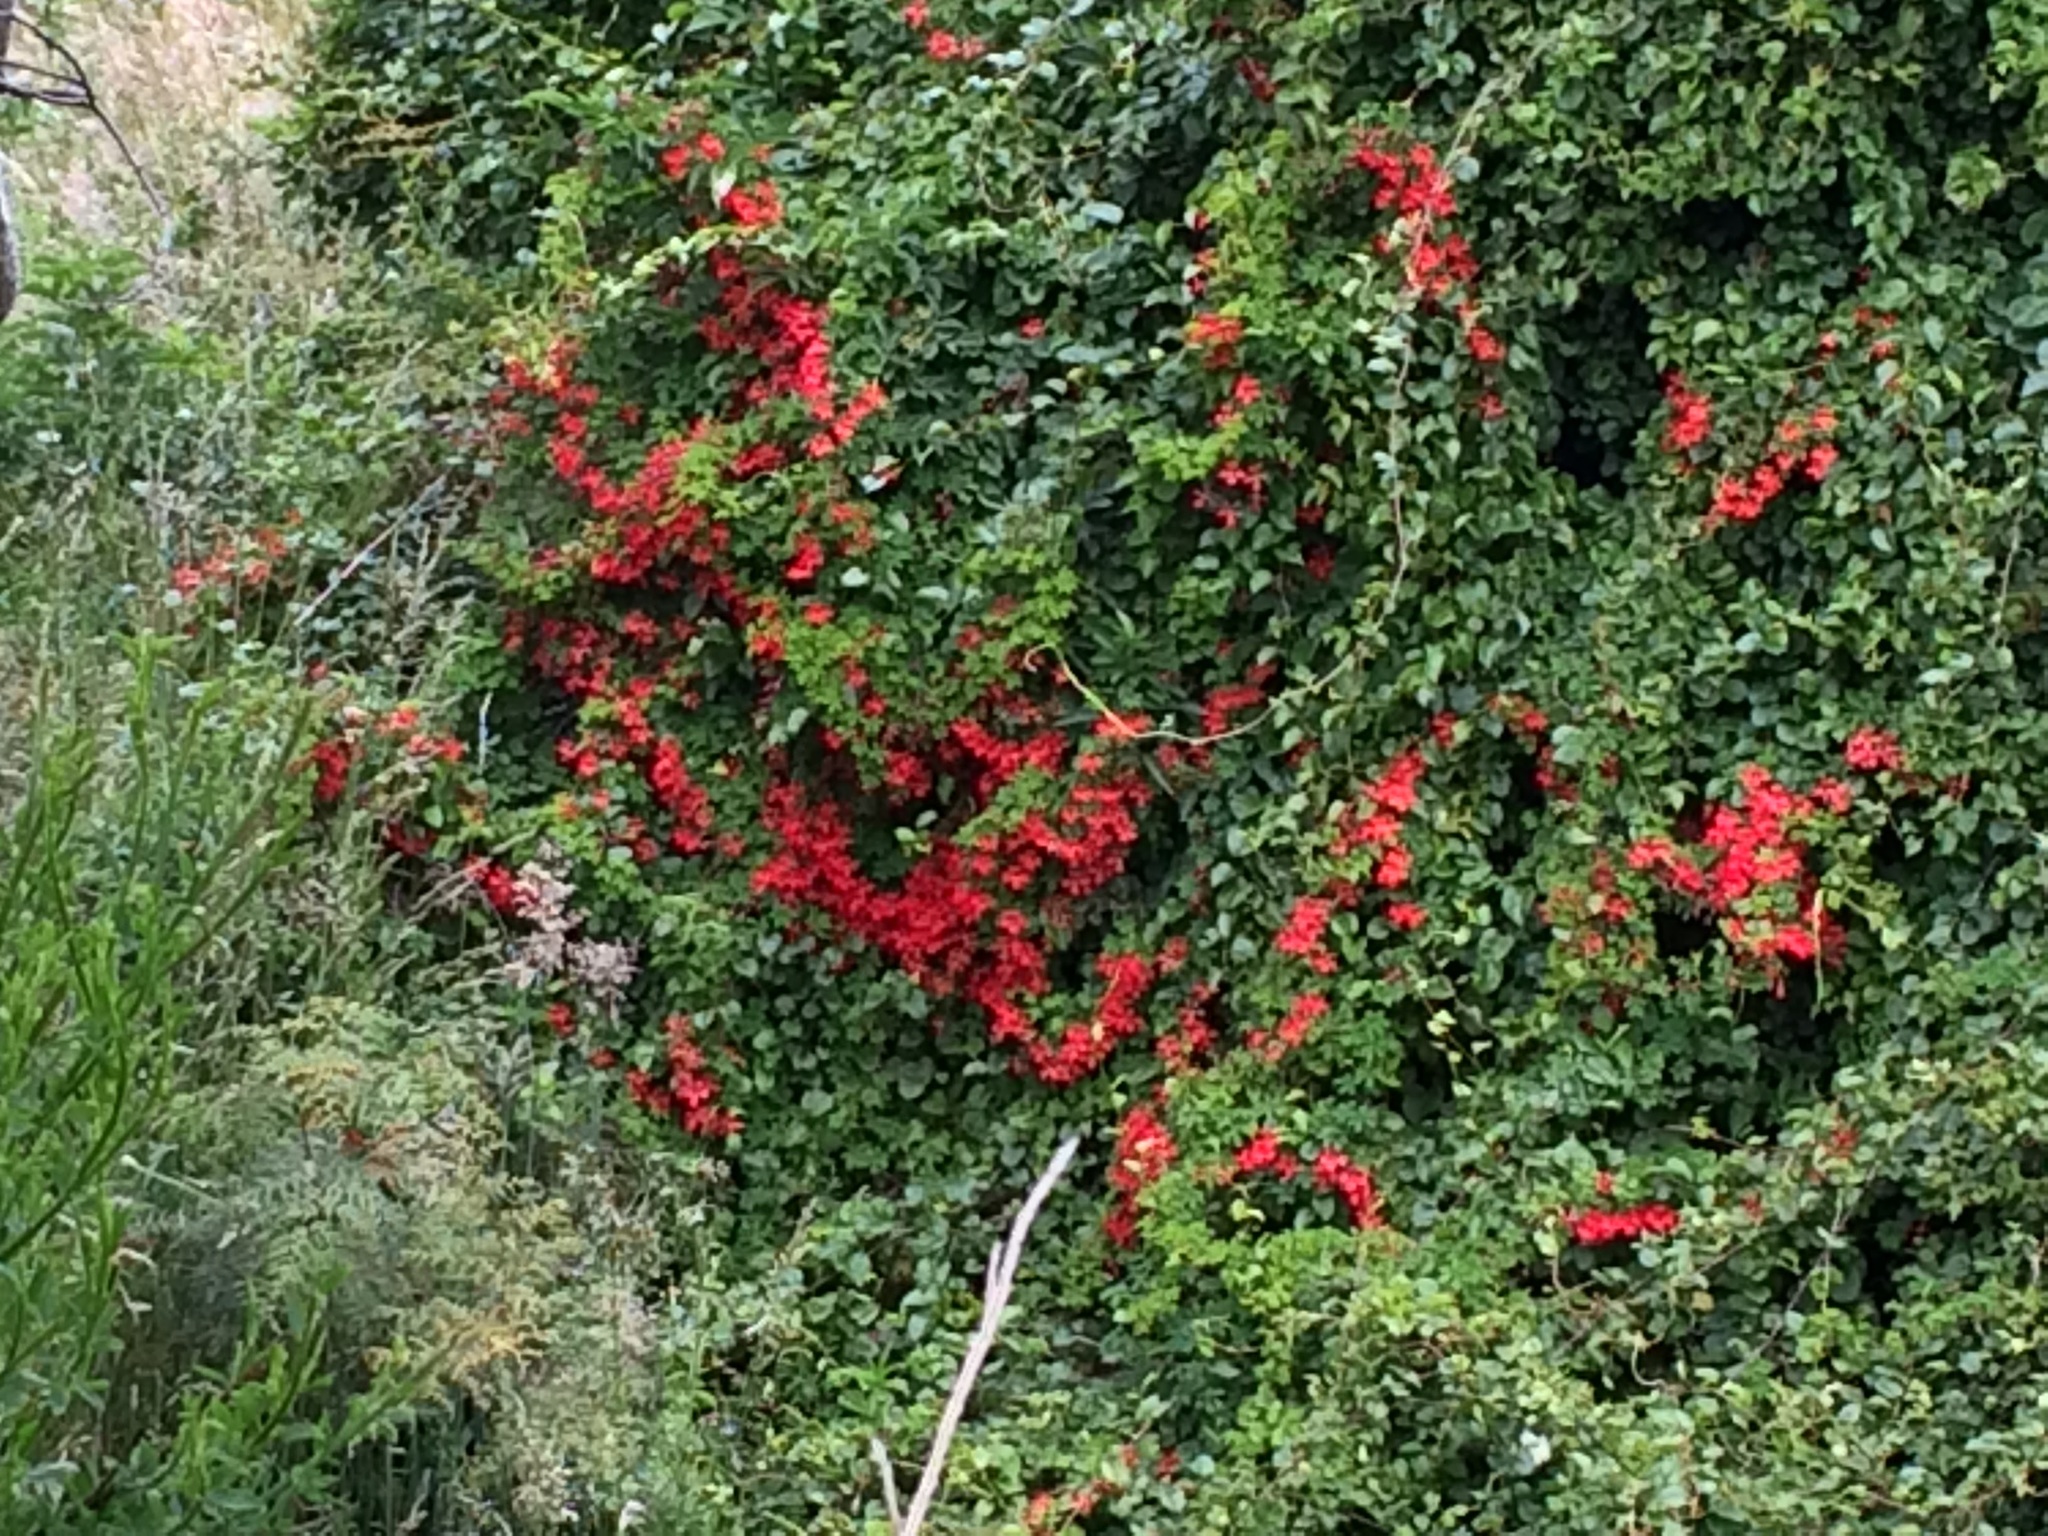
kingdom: Plantae
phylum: Tracheophyta
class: Magnoliopsida
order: Brassicales
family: Tropaeolaceae
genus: Tropaeolum
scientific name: Tropaeolum speciosum
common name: Flame nasturtium
